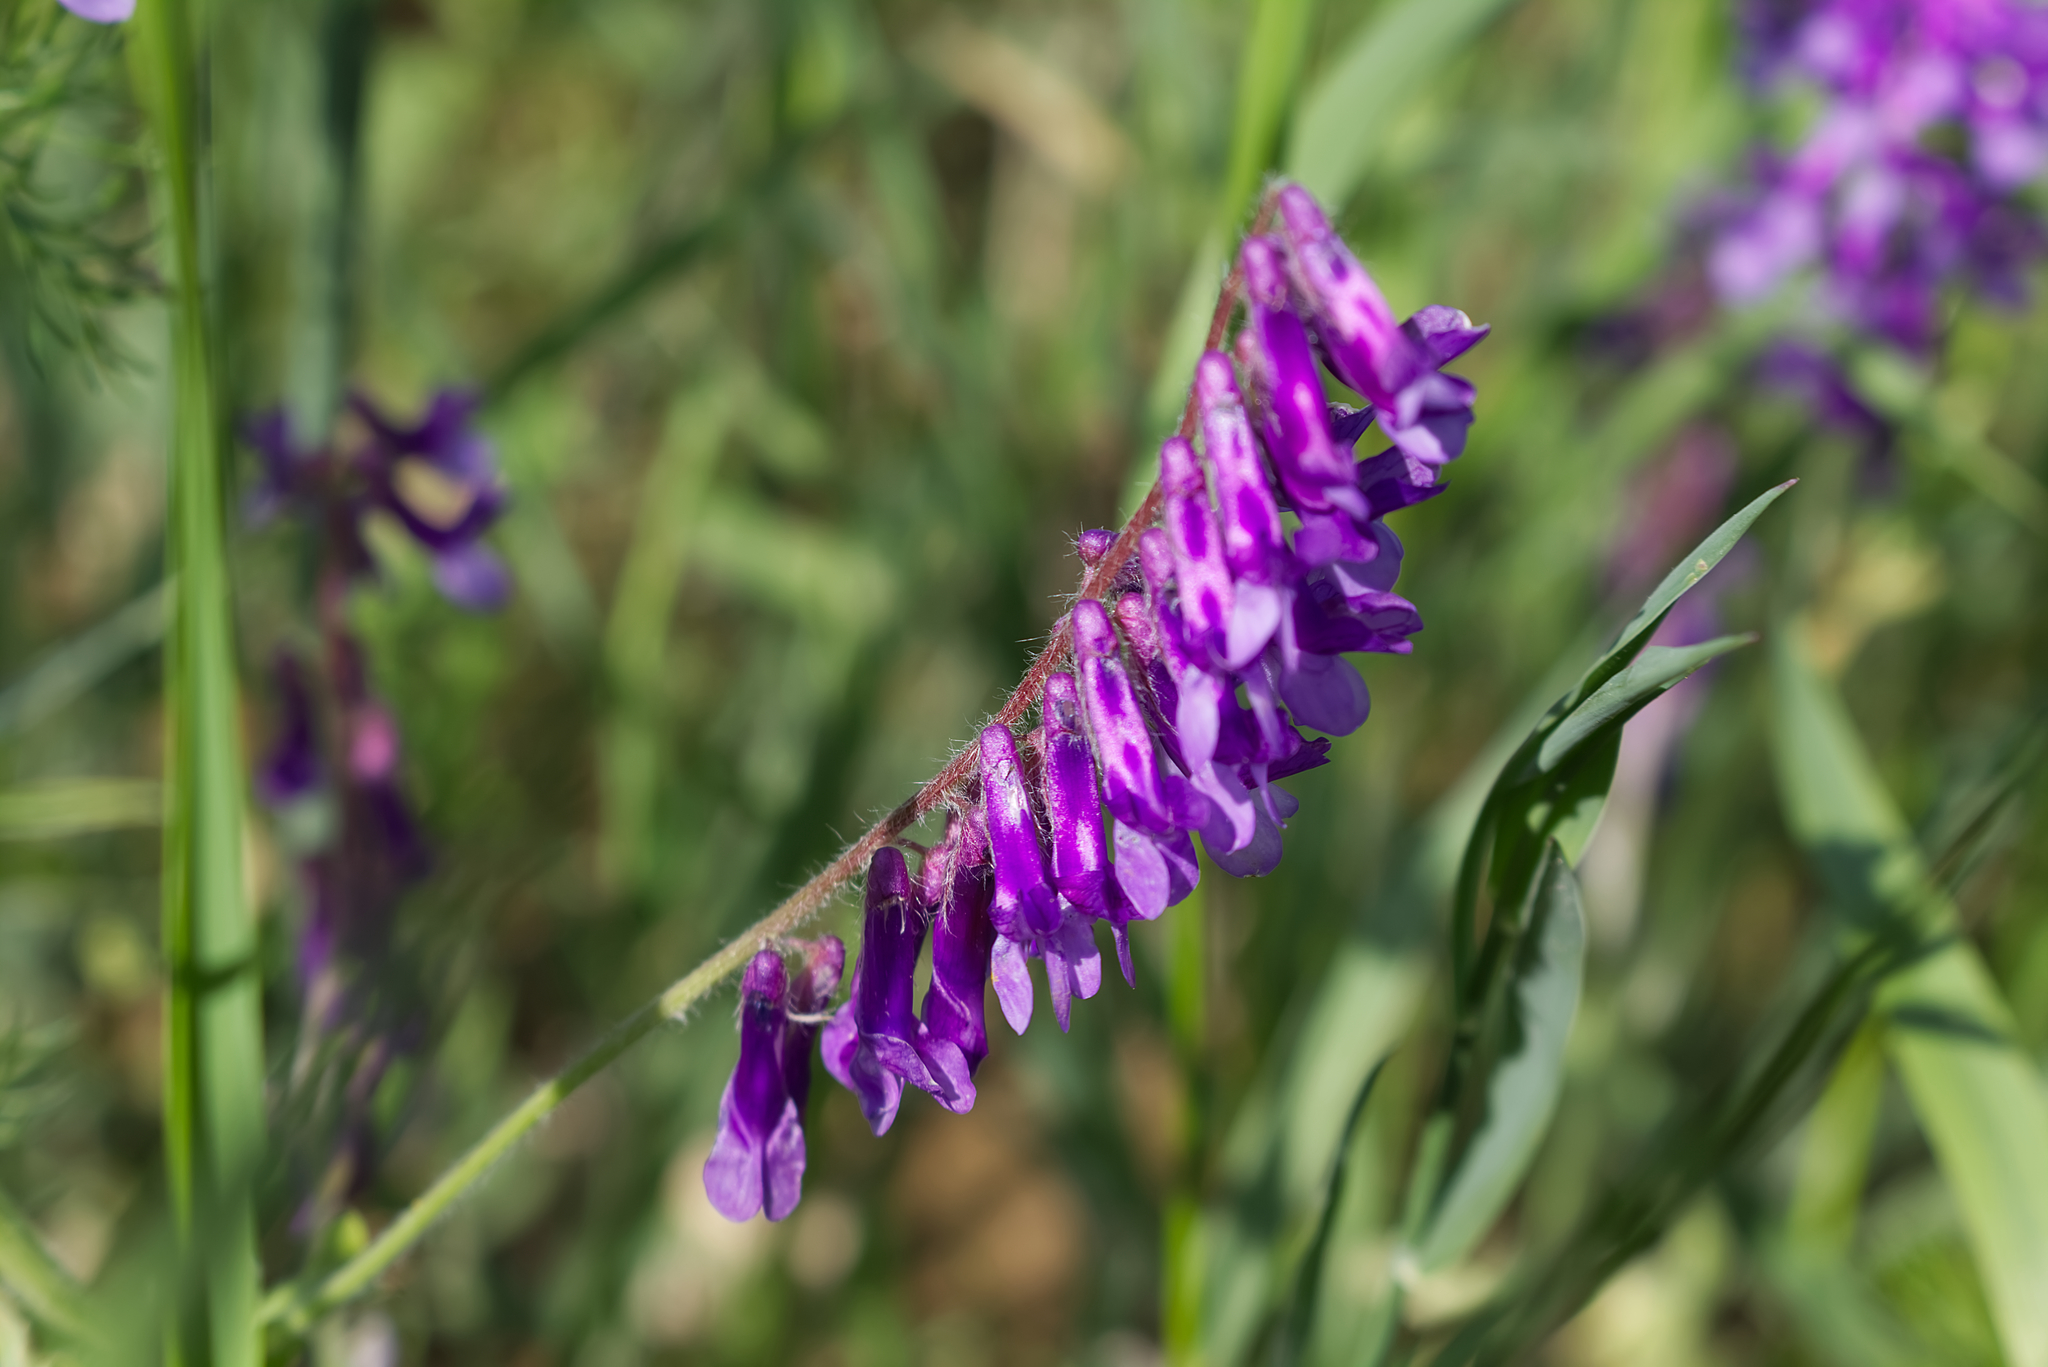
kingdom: Plantae
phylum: Tracheophyta
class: Magnoliopsida
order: Fabales
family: Fabaceae
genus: Vicia
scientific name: Vicia villosa
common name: Fodder vetch
